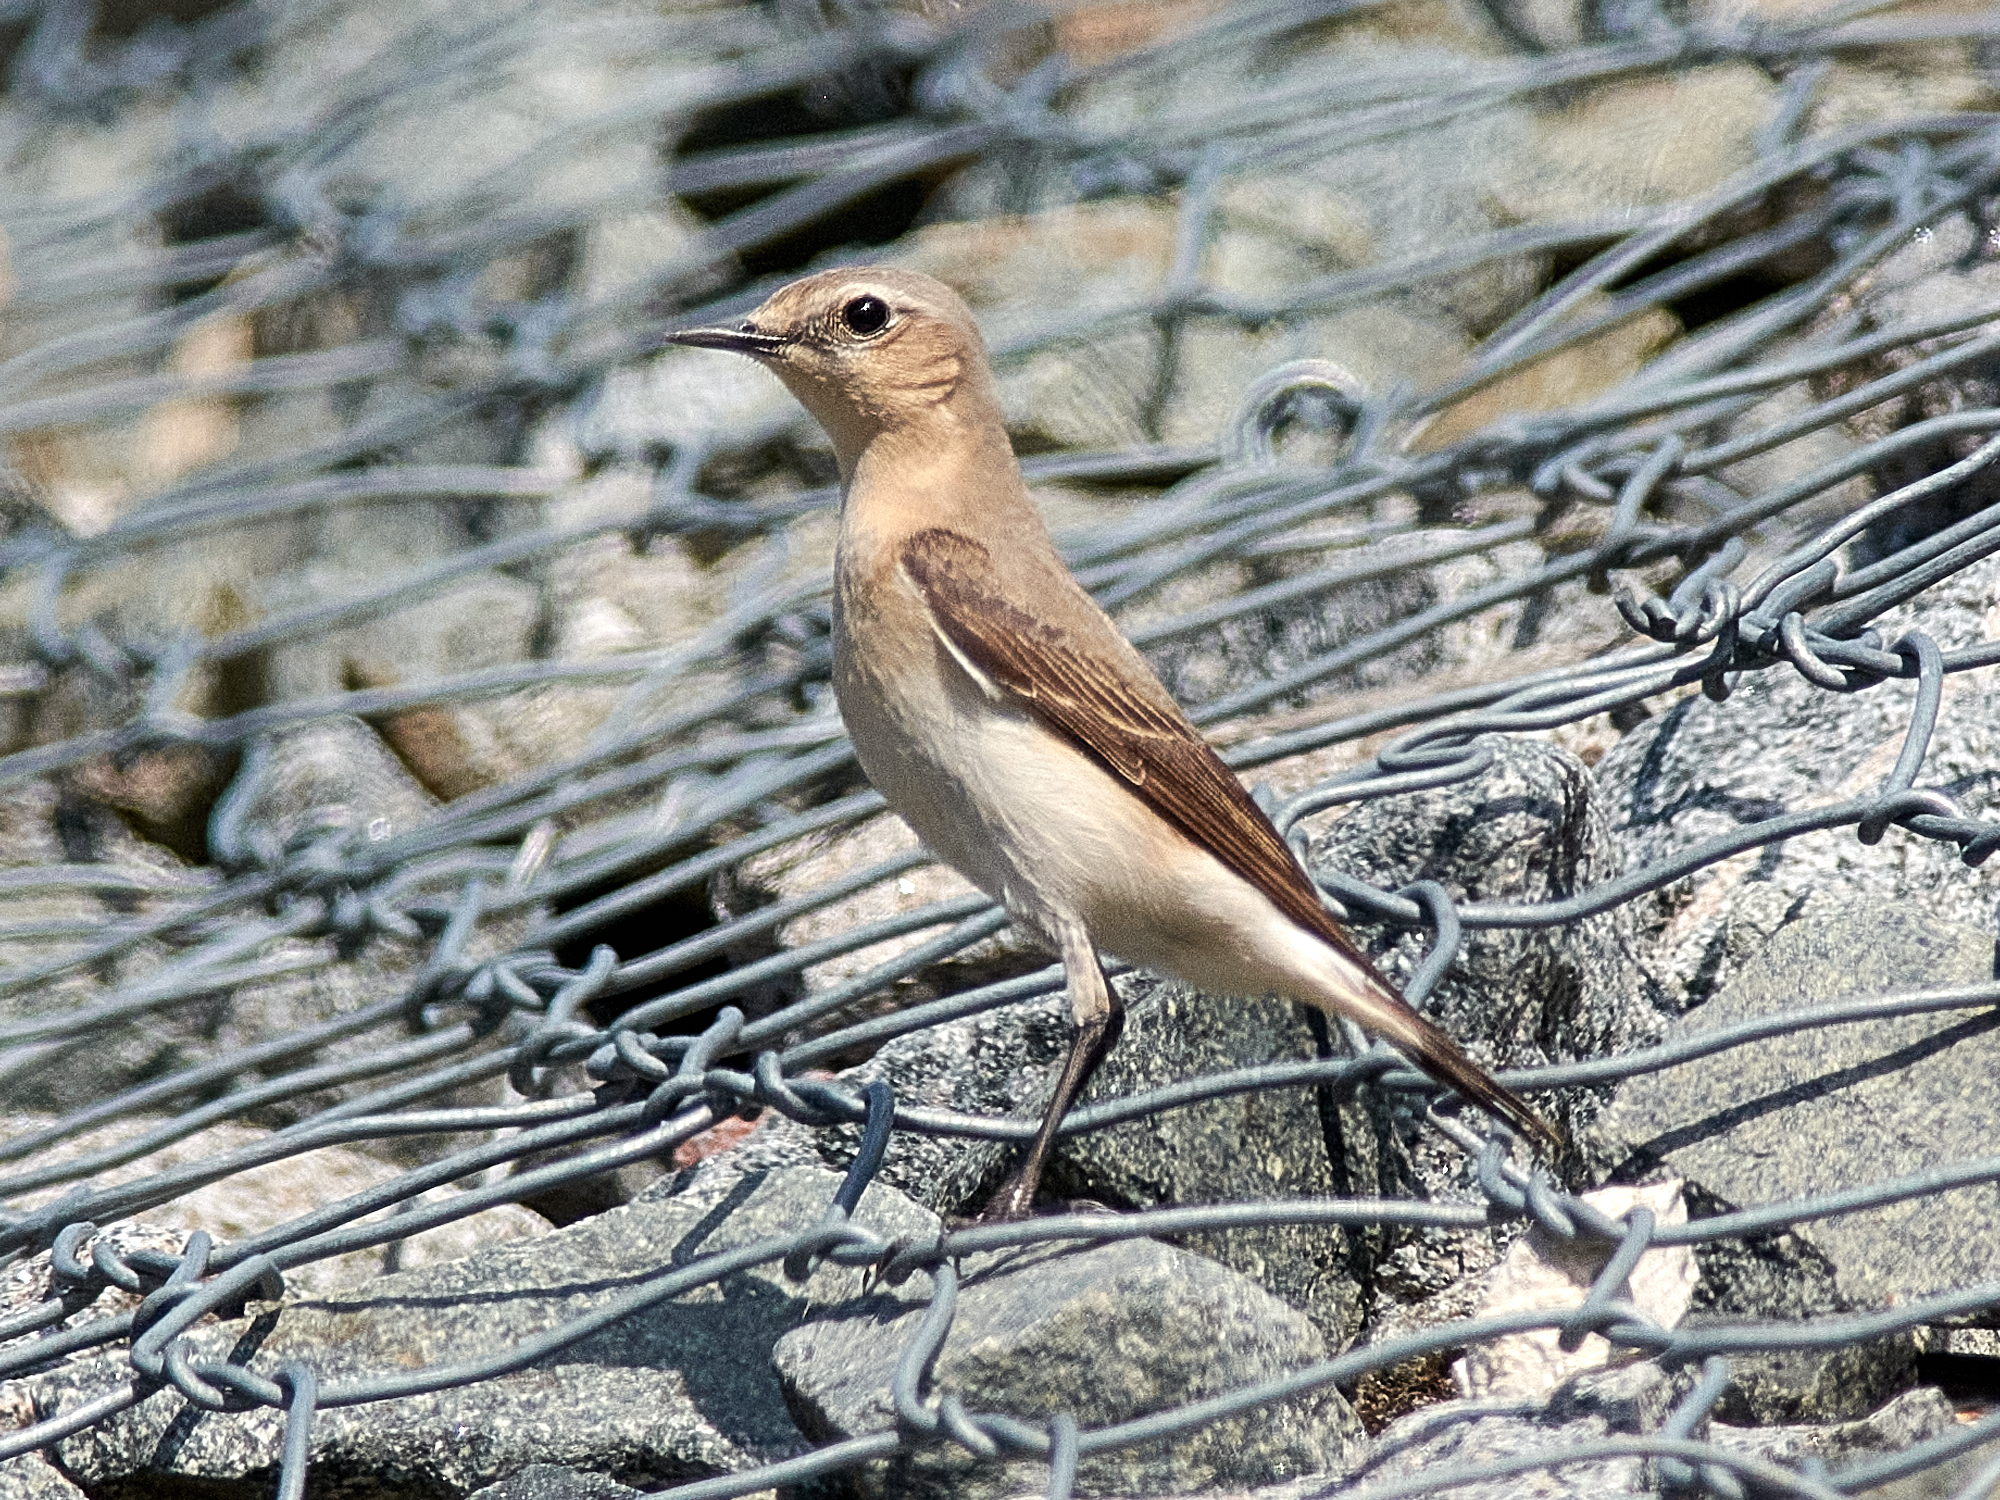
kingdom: Animalia
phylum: Chordata
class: Aves
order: Passeriformes
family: Muscicapidae
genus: Oenanthe
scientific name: Oenanthe oenanthe
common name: Northern wheatear
